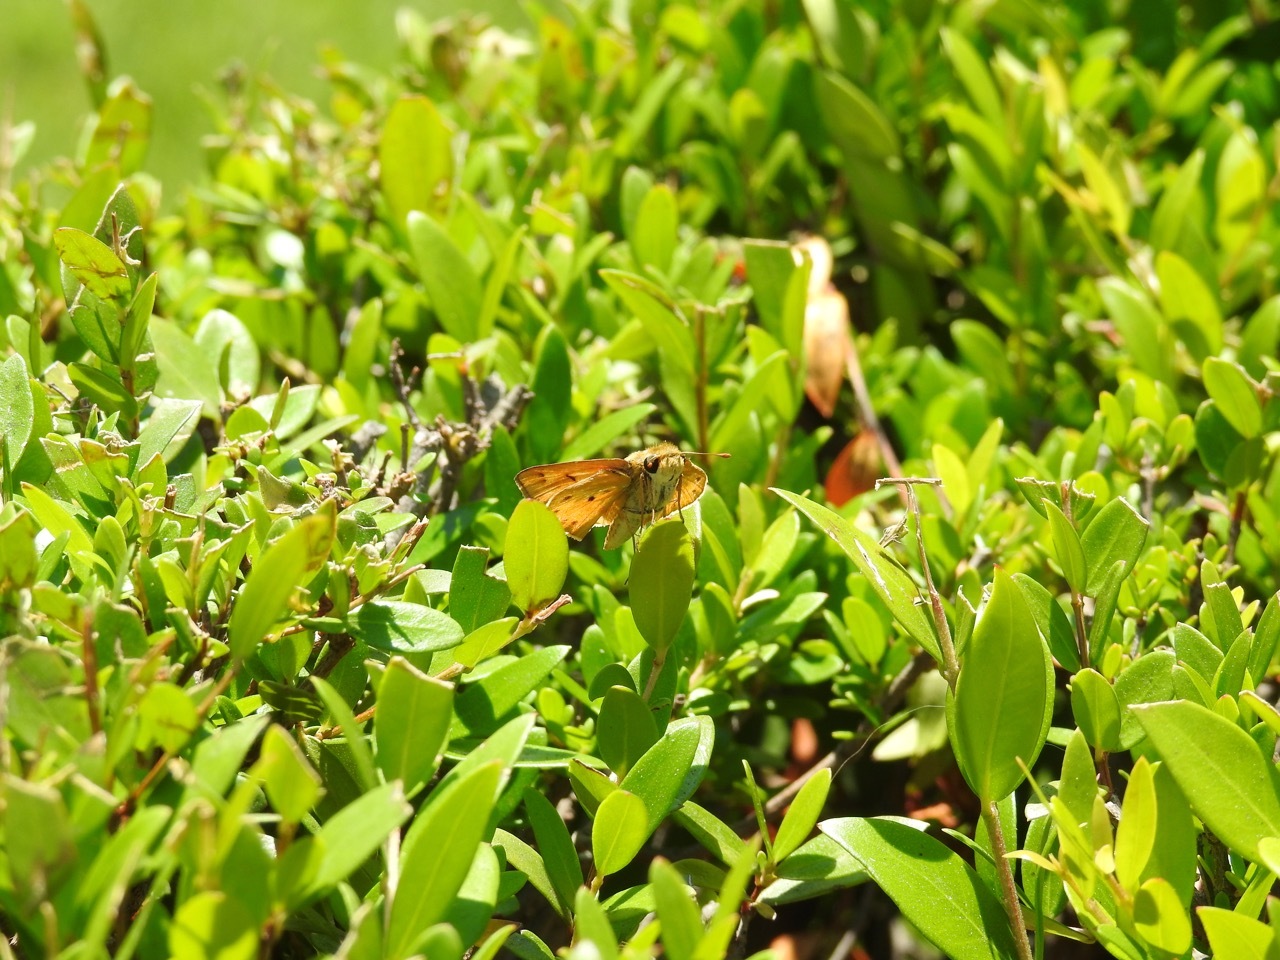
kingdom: Animalia
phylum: Arthropoda
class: Insecta
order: Lepidoptera
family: Hesperiidae
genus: Hylephila
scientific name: Hylephila phyleus
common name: Fiery skipper
